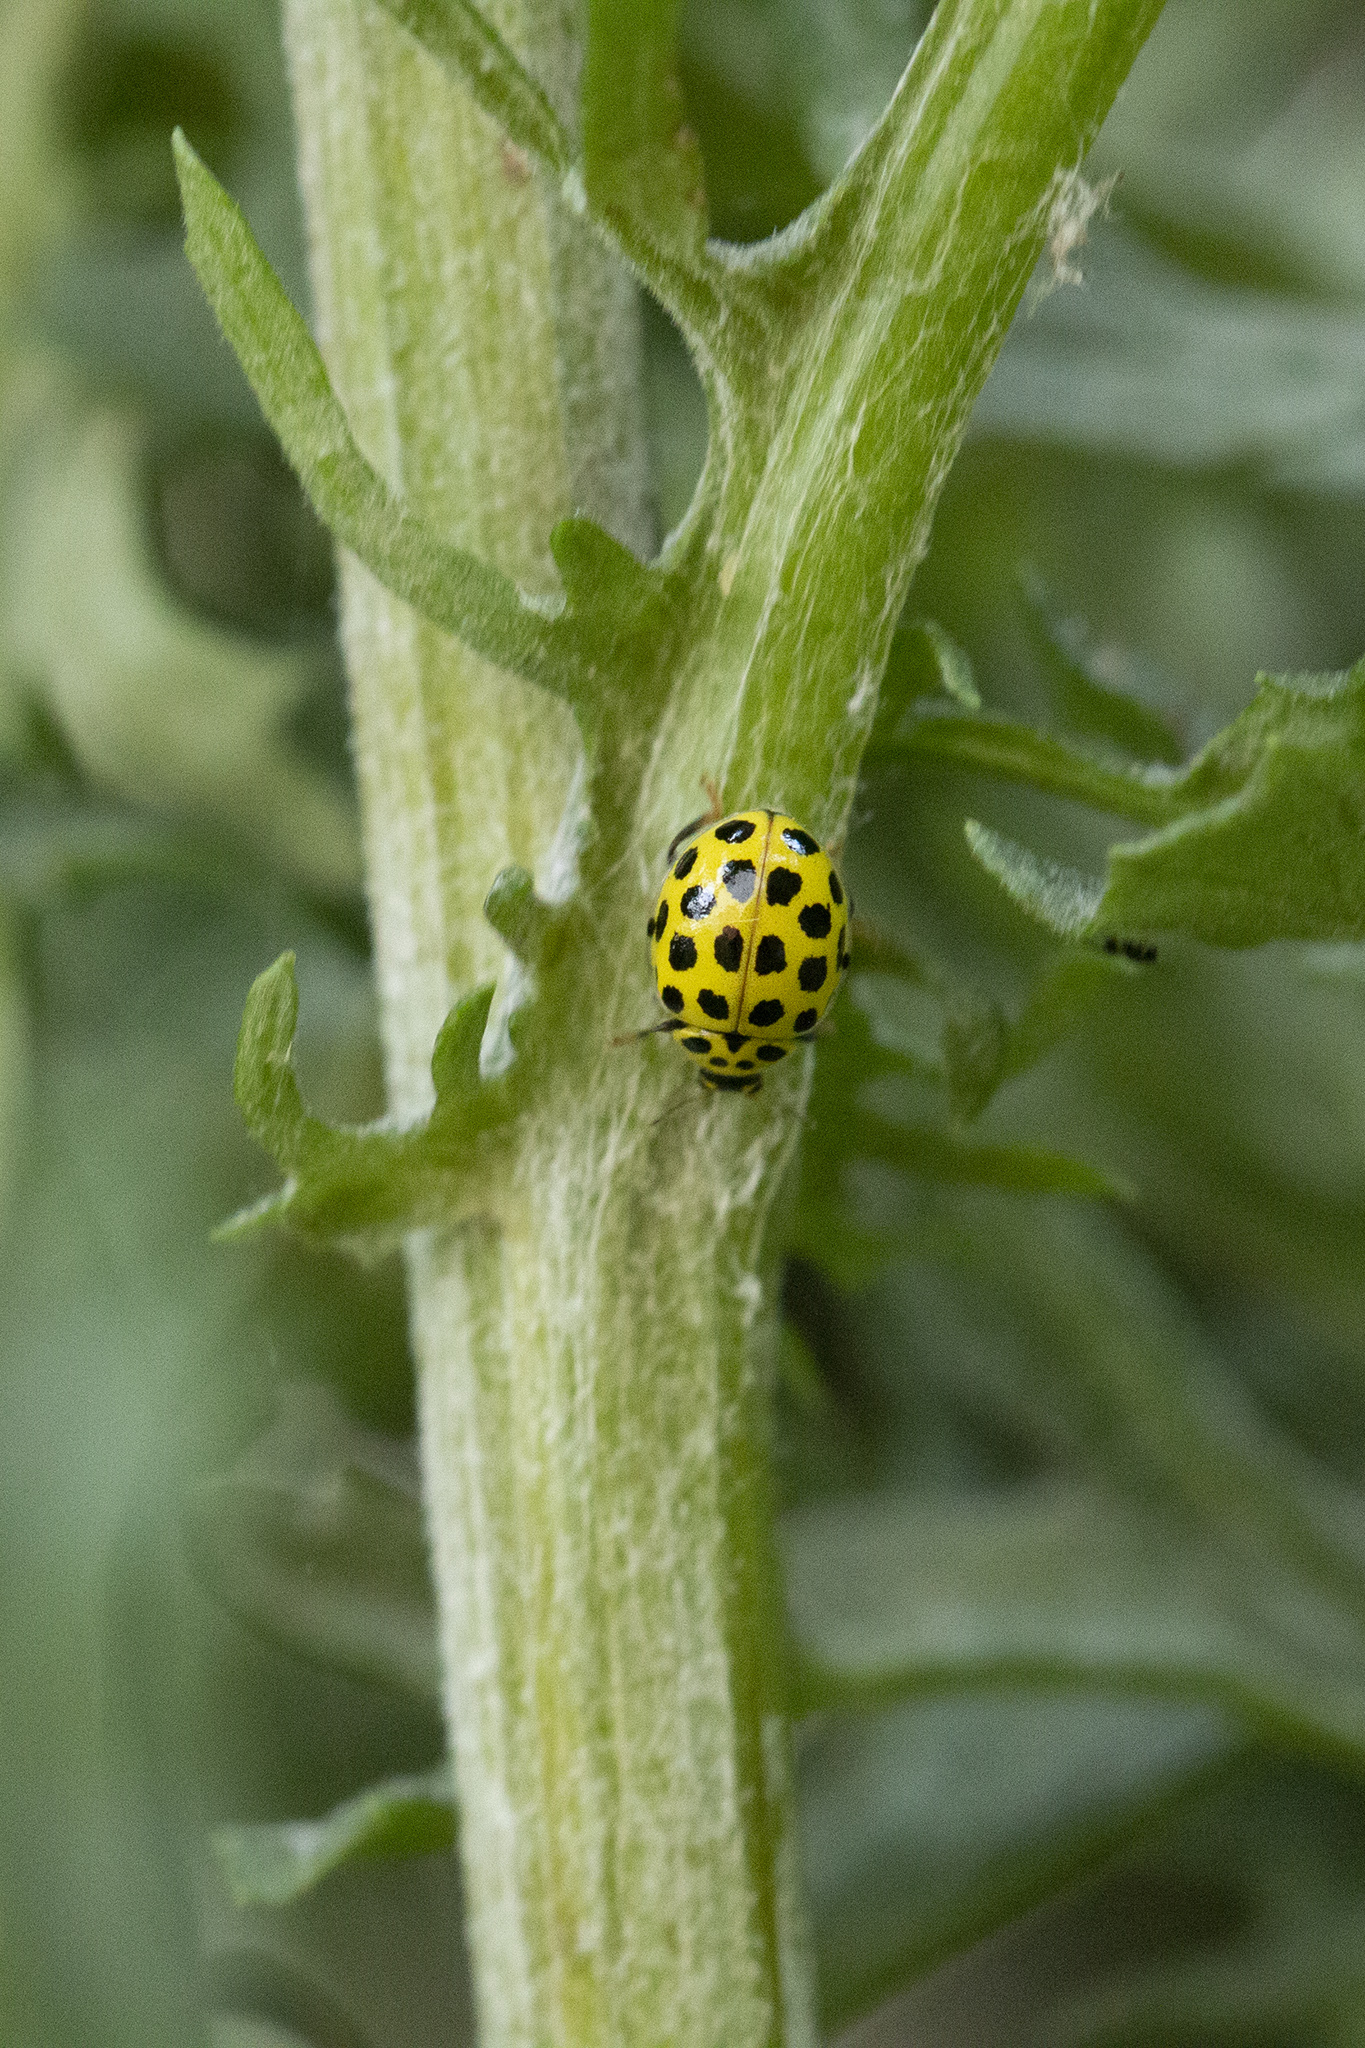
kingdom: Animalia
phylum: Arthropoda
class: Insecta
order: Coleoptera
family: Coccinellidae
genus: Psyllobora
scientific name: Psyllobora vigintiduopunctata
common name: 22-spot ladybird
